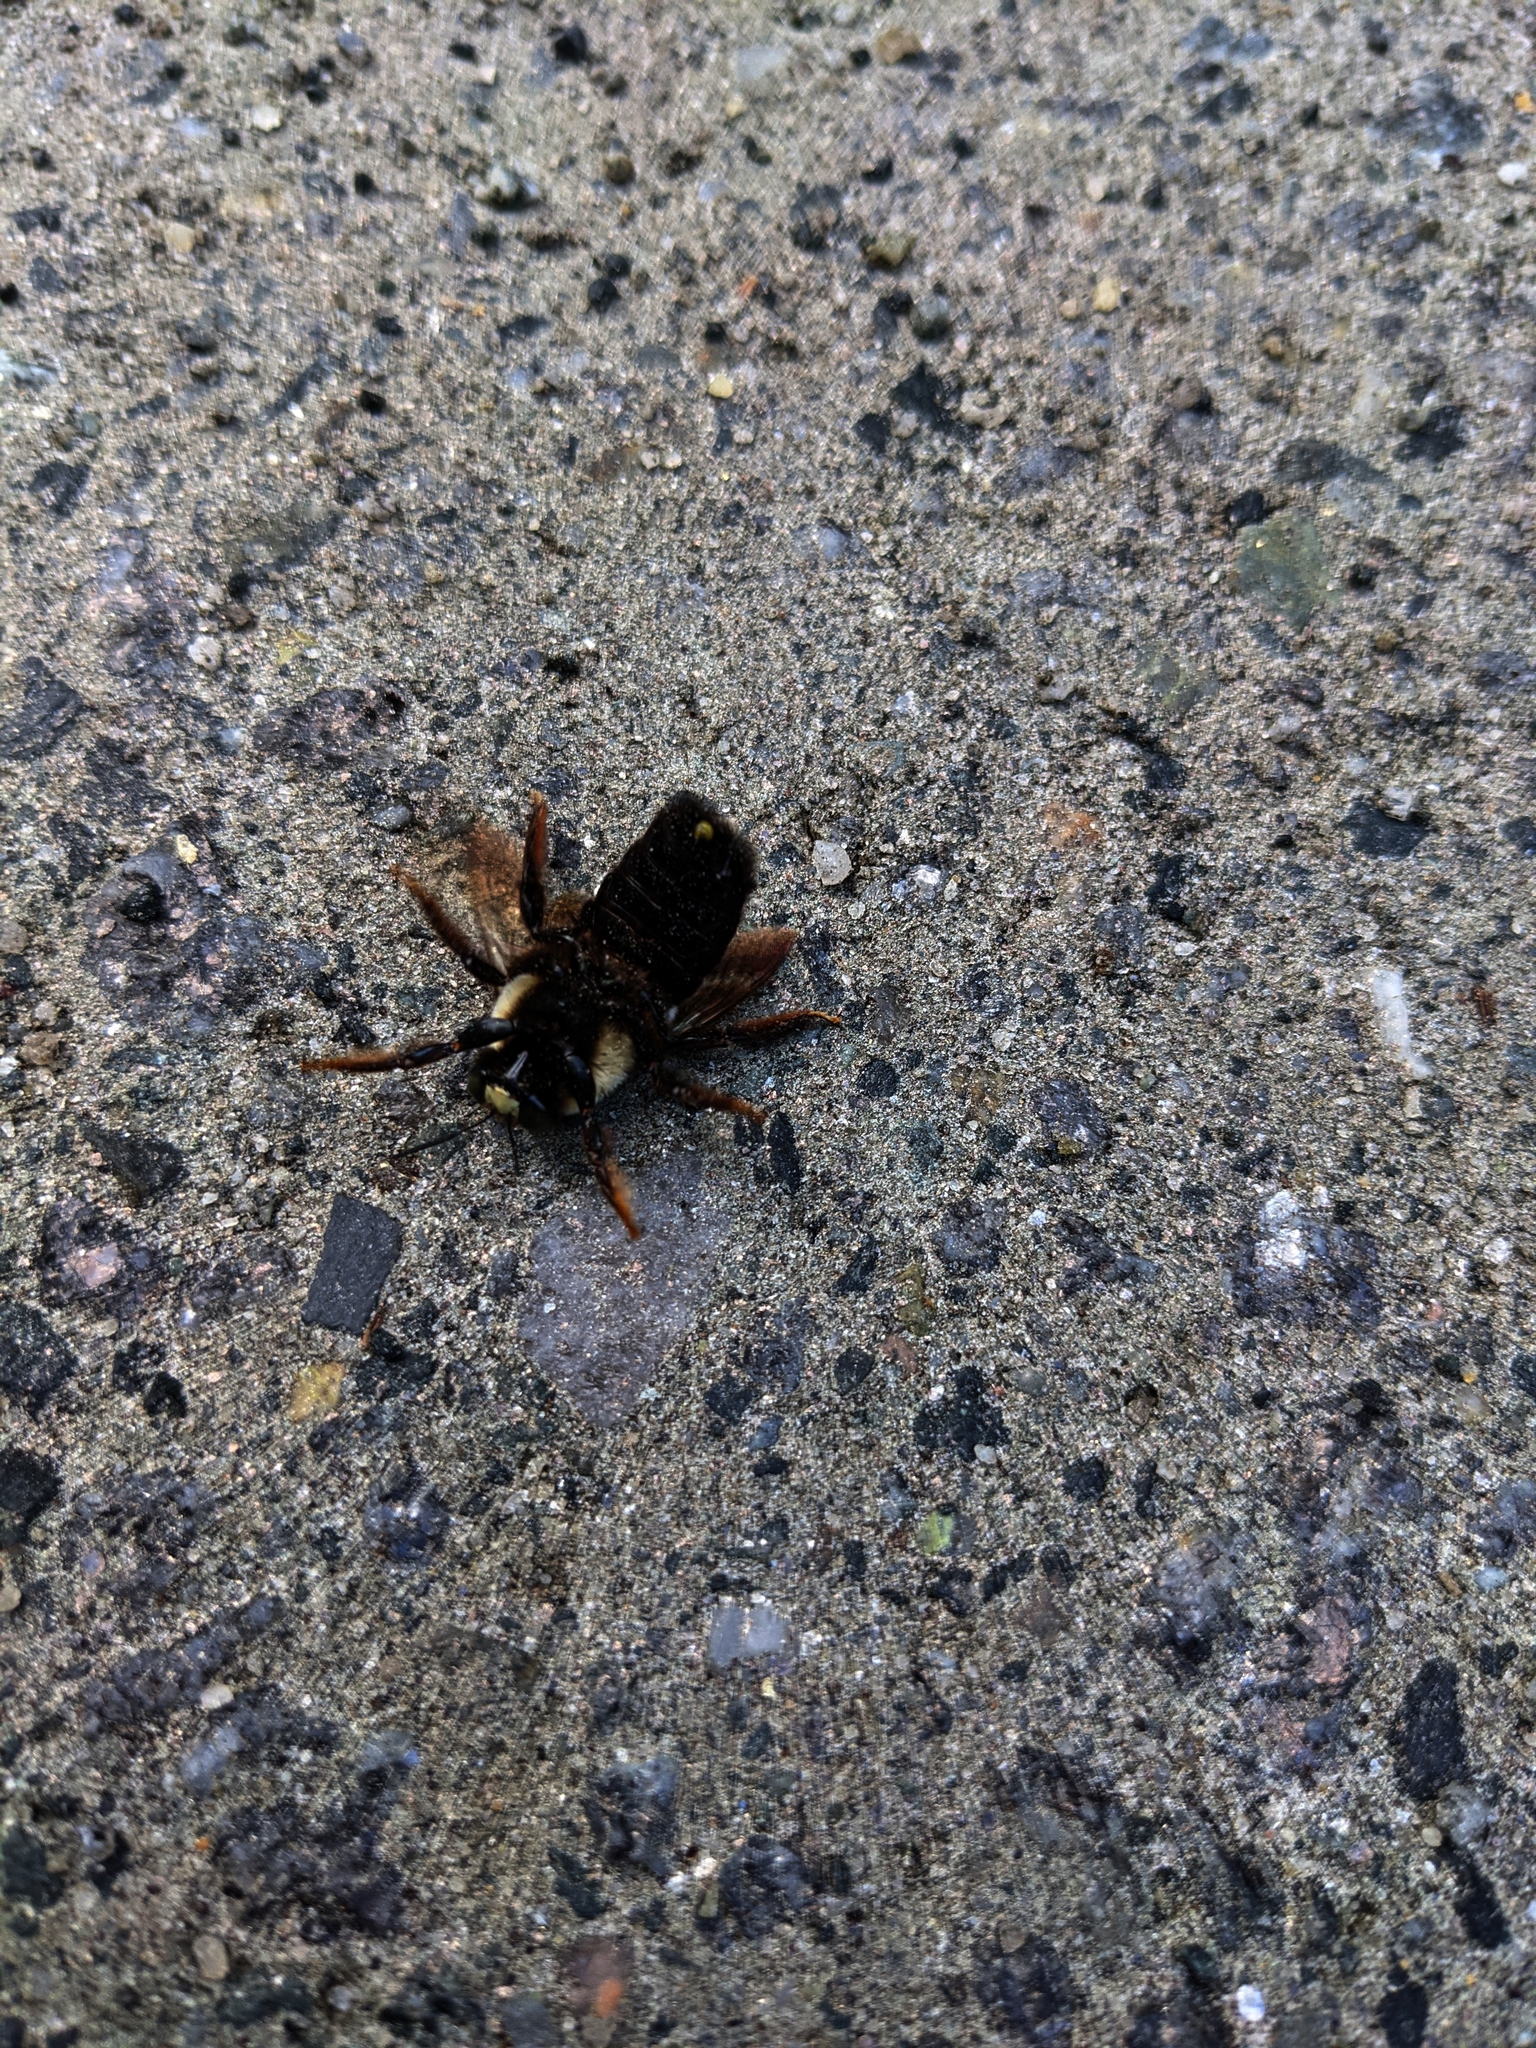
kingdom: Animalia
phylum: Arthropoda
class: Insecta
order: Hymenoptera
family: Apidae
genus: Xylocopa
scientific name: Xylocopa virginica
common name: Carpenter bee
